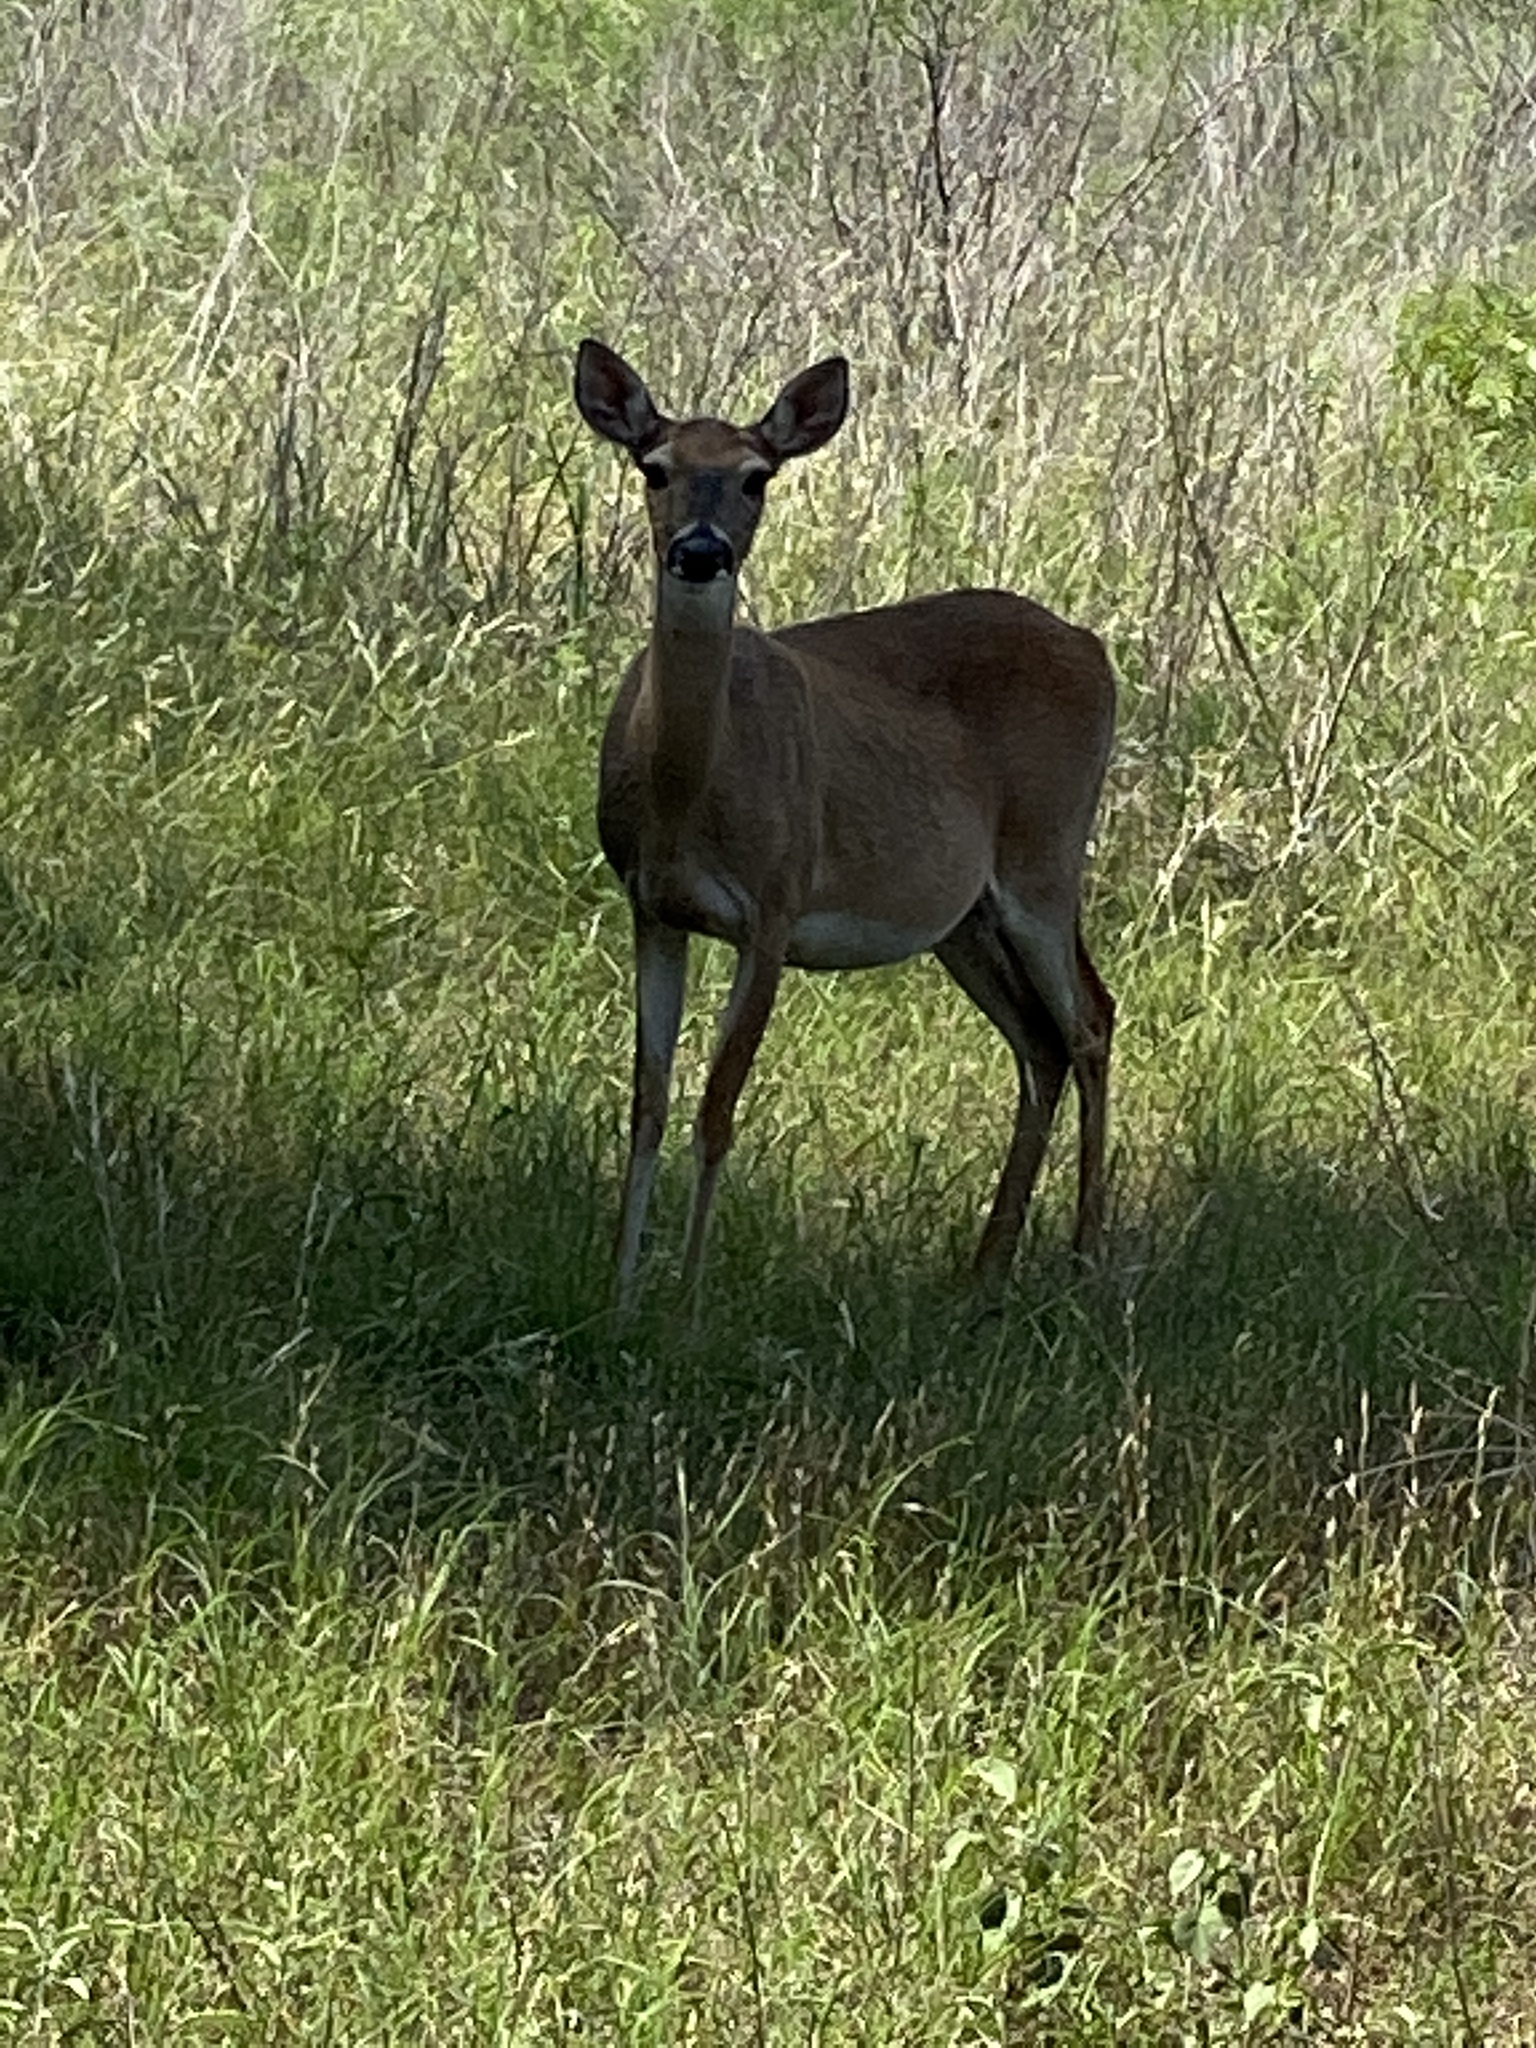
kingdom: Animalia
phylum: Chordata
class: Mammalia
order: Artiodactyla
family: Cervidae
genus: Odocoileus
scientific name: Odocoileus virginianus
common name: White-tailed deer
